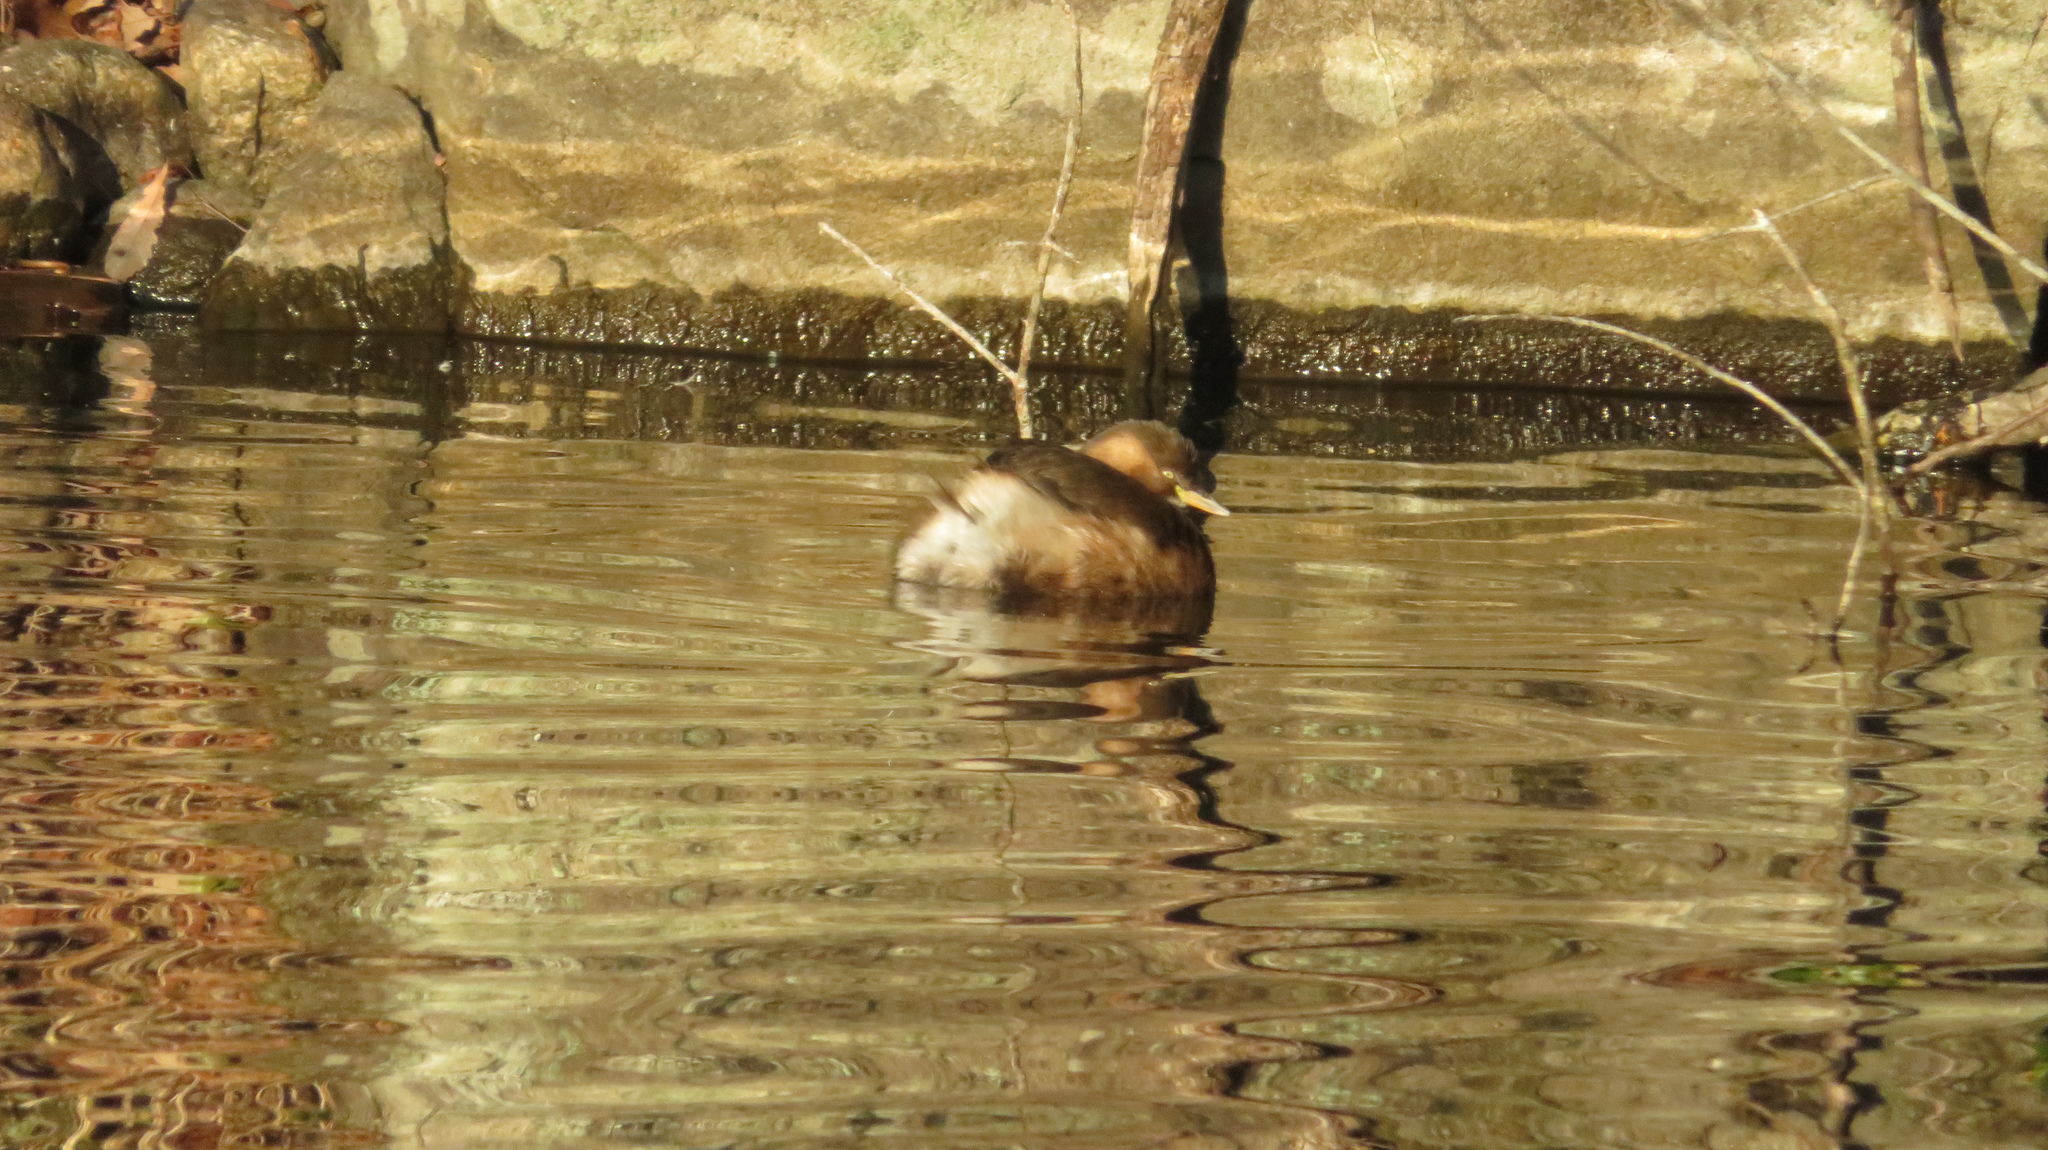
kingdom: Animalia
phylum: Chordata
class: Aves
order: Podicipediformes
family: Podicipedidae
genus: Tachybaptus
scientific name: Tachybaptus ruficollis
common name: Little grebe
